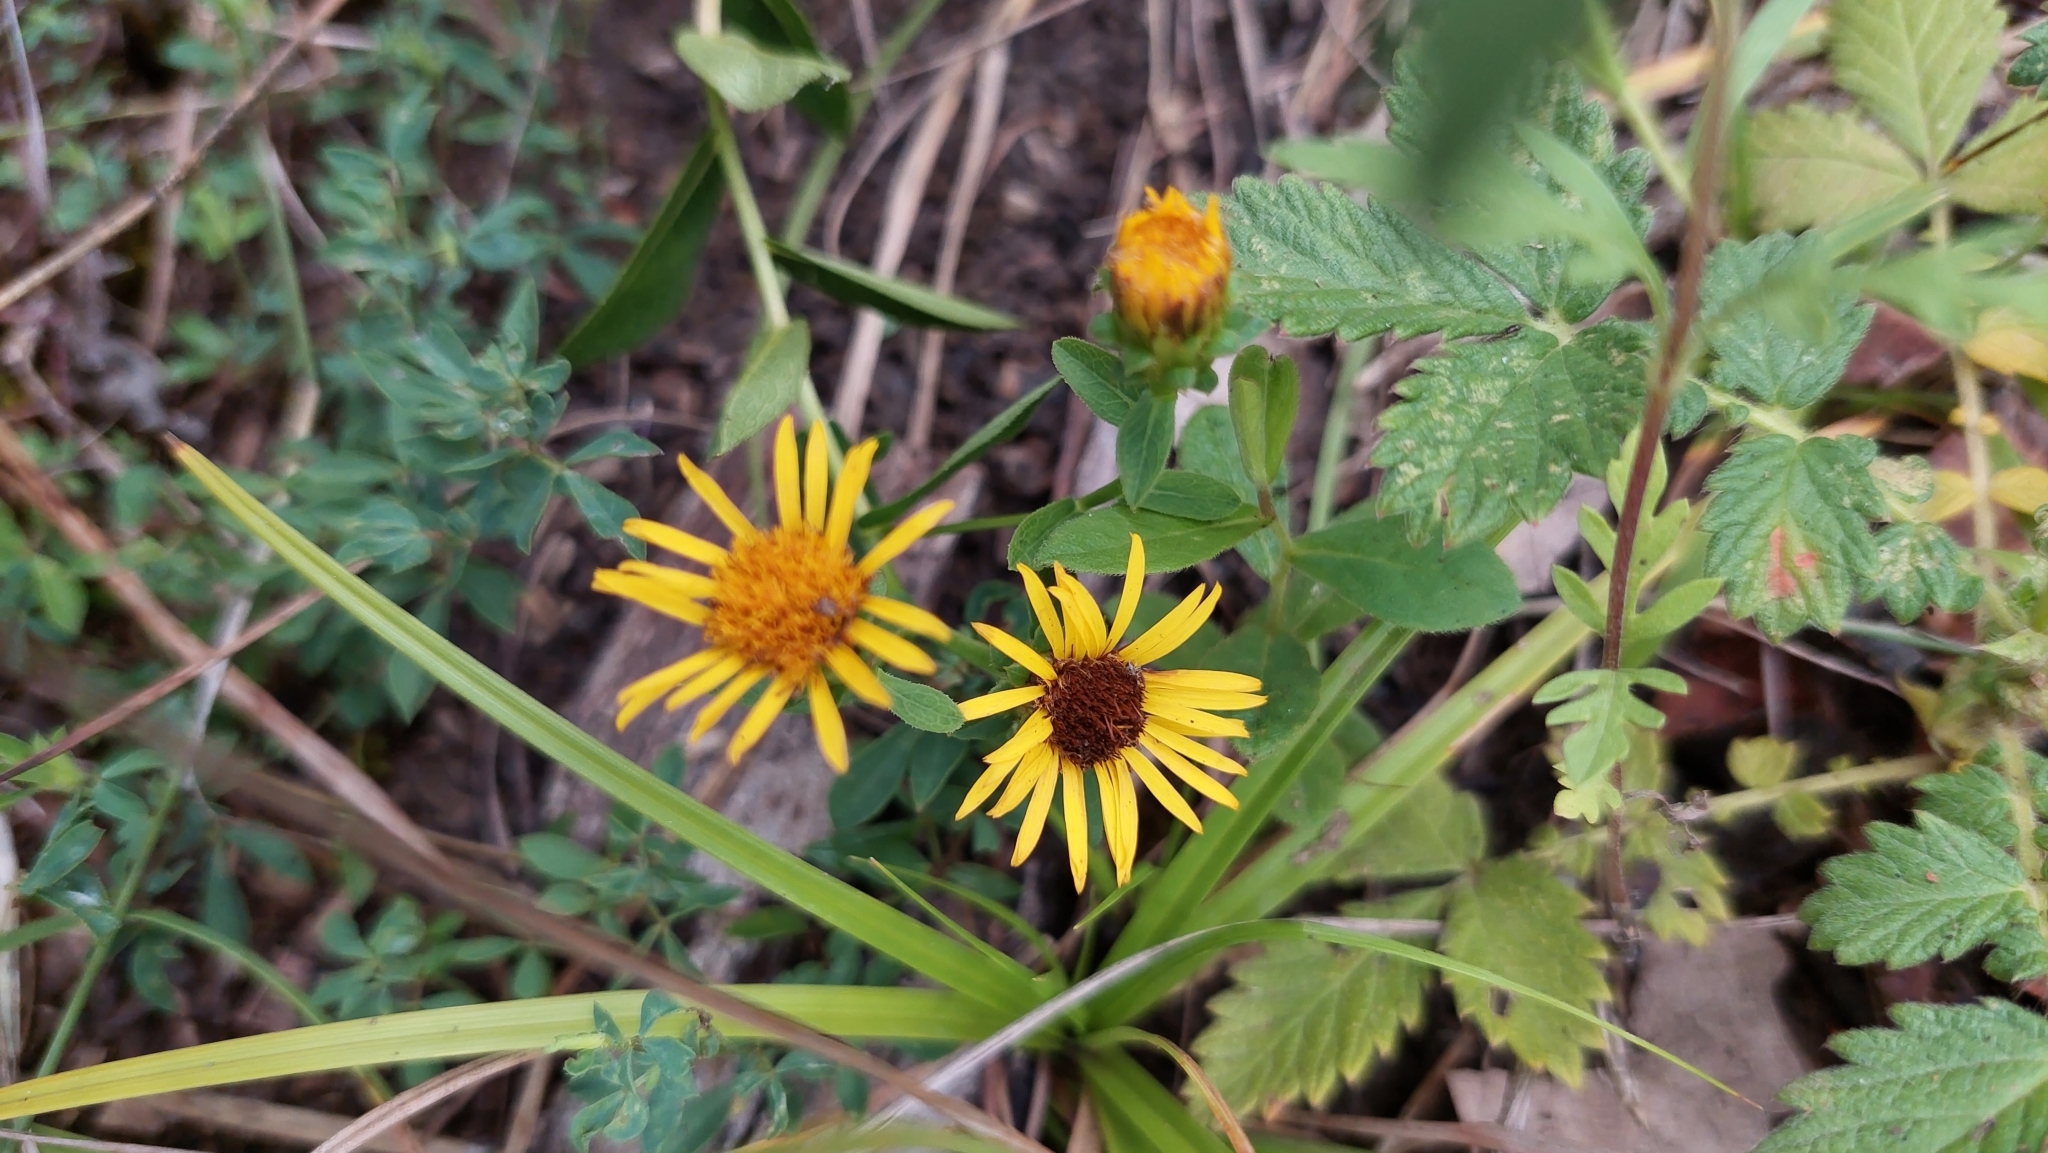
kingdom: Plantae
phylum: Tracheophyta
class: Magnoliopsida
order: Asterales
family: Asteraceae
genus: Pentanema
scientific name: Pentanema asperum
